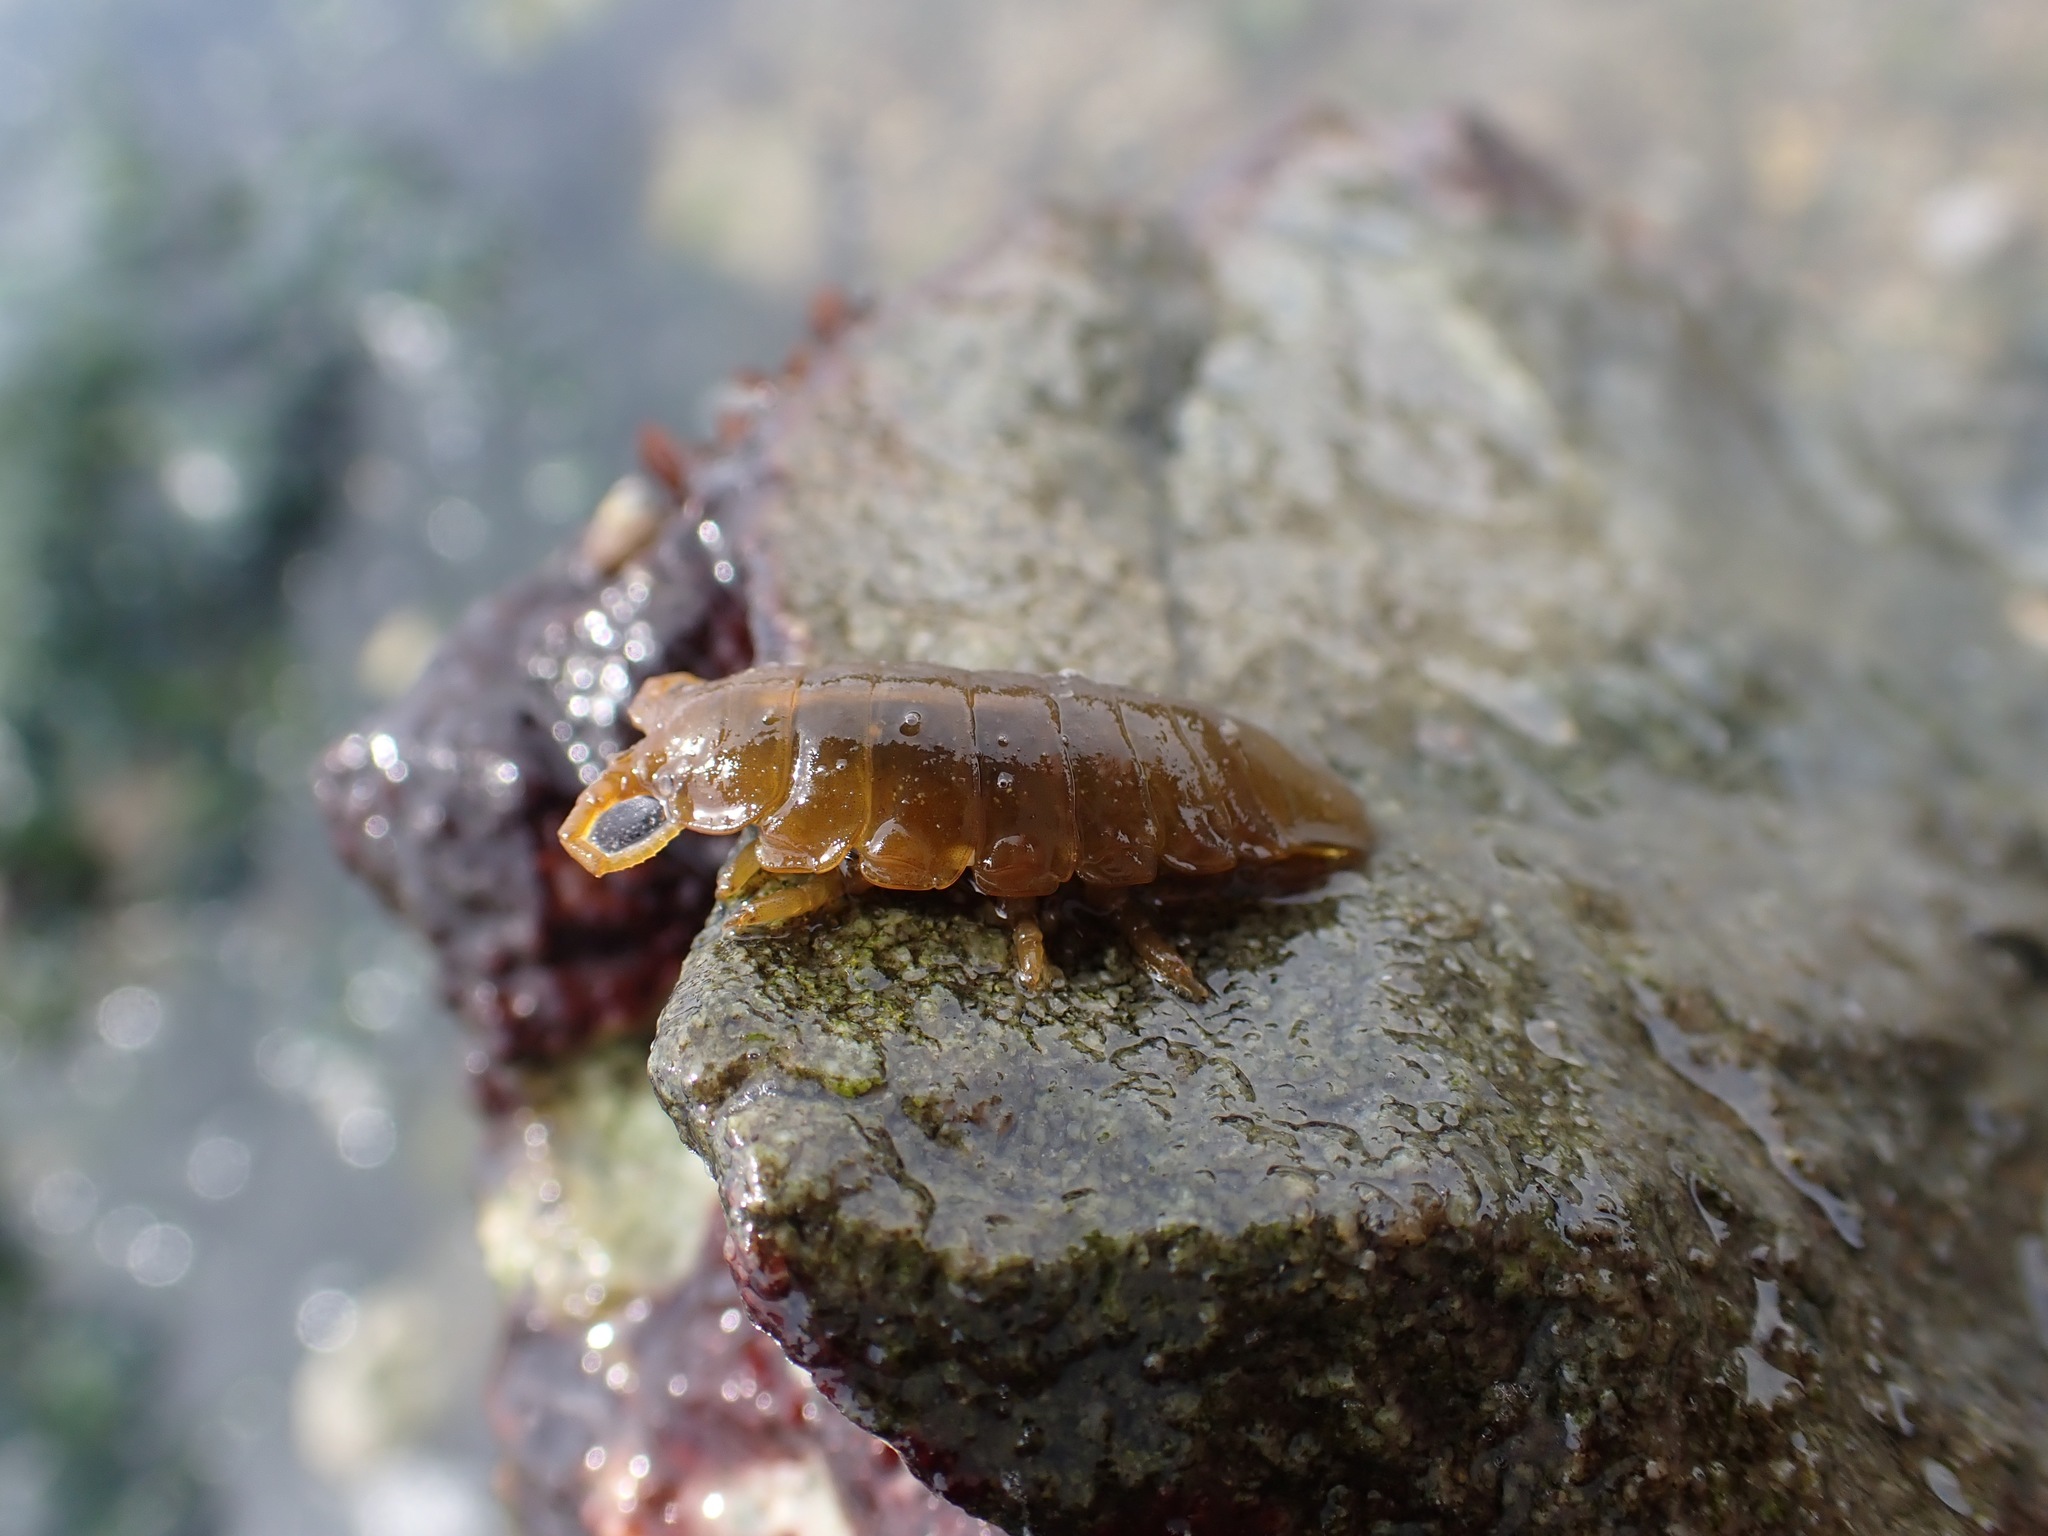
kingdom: Animalia
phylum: Arthropoda
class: Malacostraca
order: Isopoda
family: Idoteidae
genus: Pentidotea
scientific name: Pentidotea wosnesenskii
